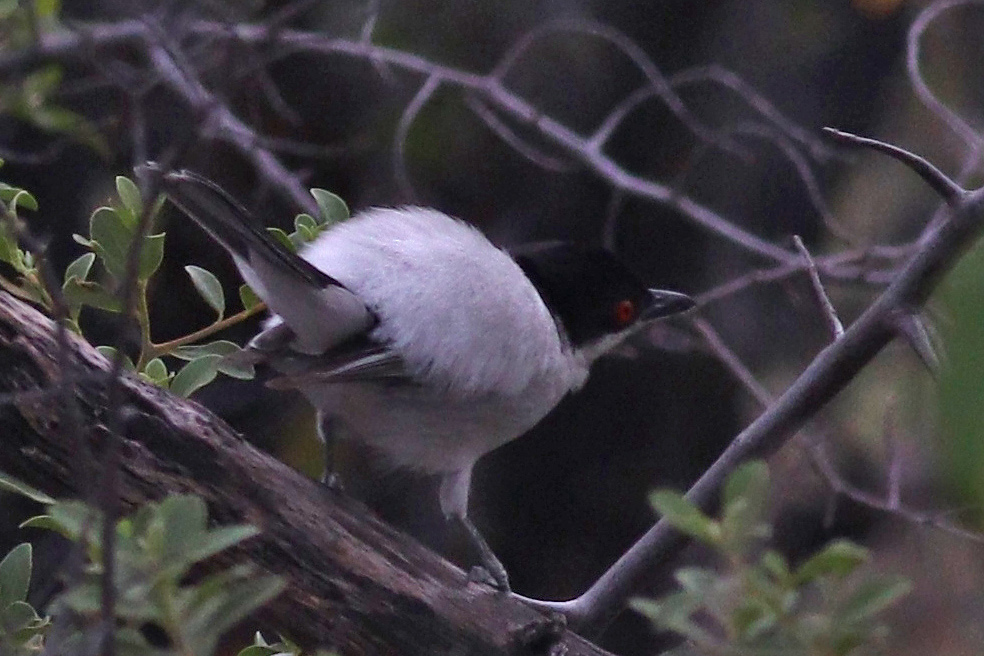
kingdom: Animalia
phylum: Chordata
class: Aves
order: Passeriformes
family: Malaconotidae
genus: Dryoscopus
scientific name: Dryoscopus cubla
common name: Black-backed puffback
